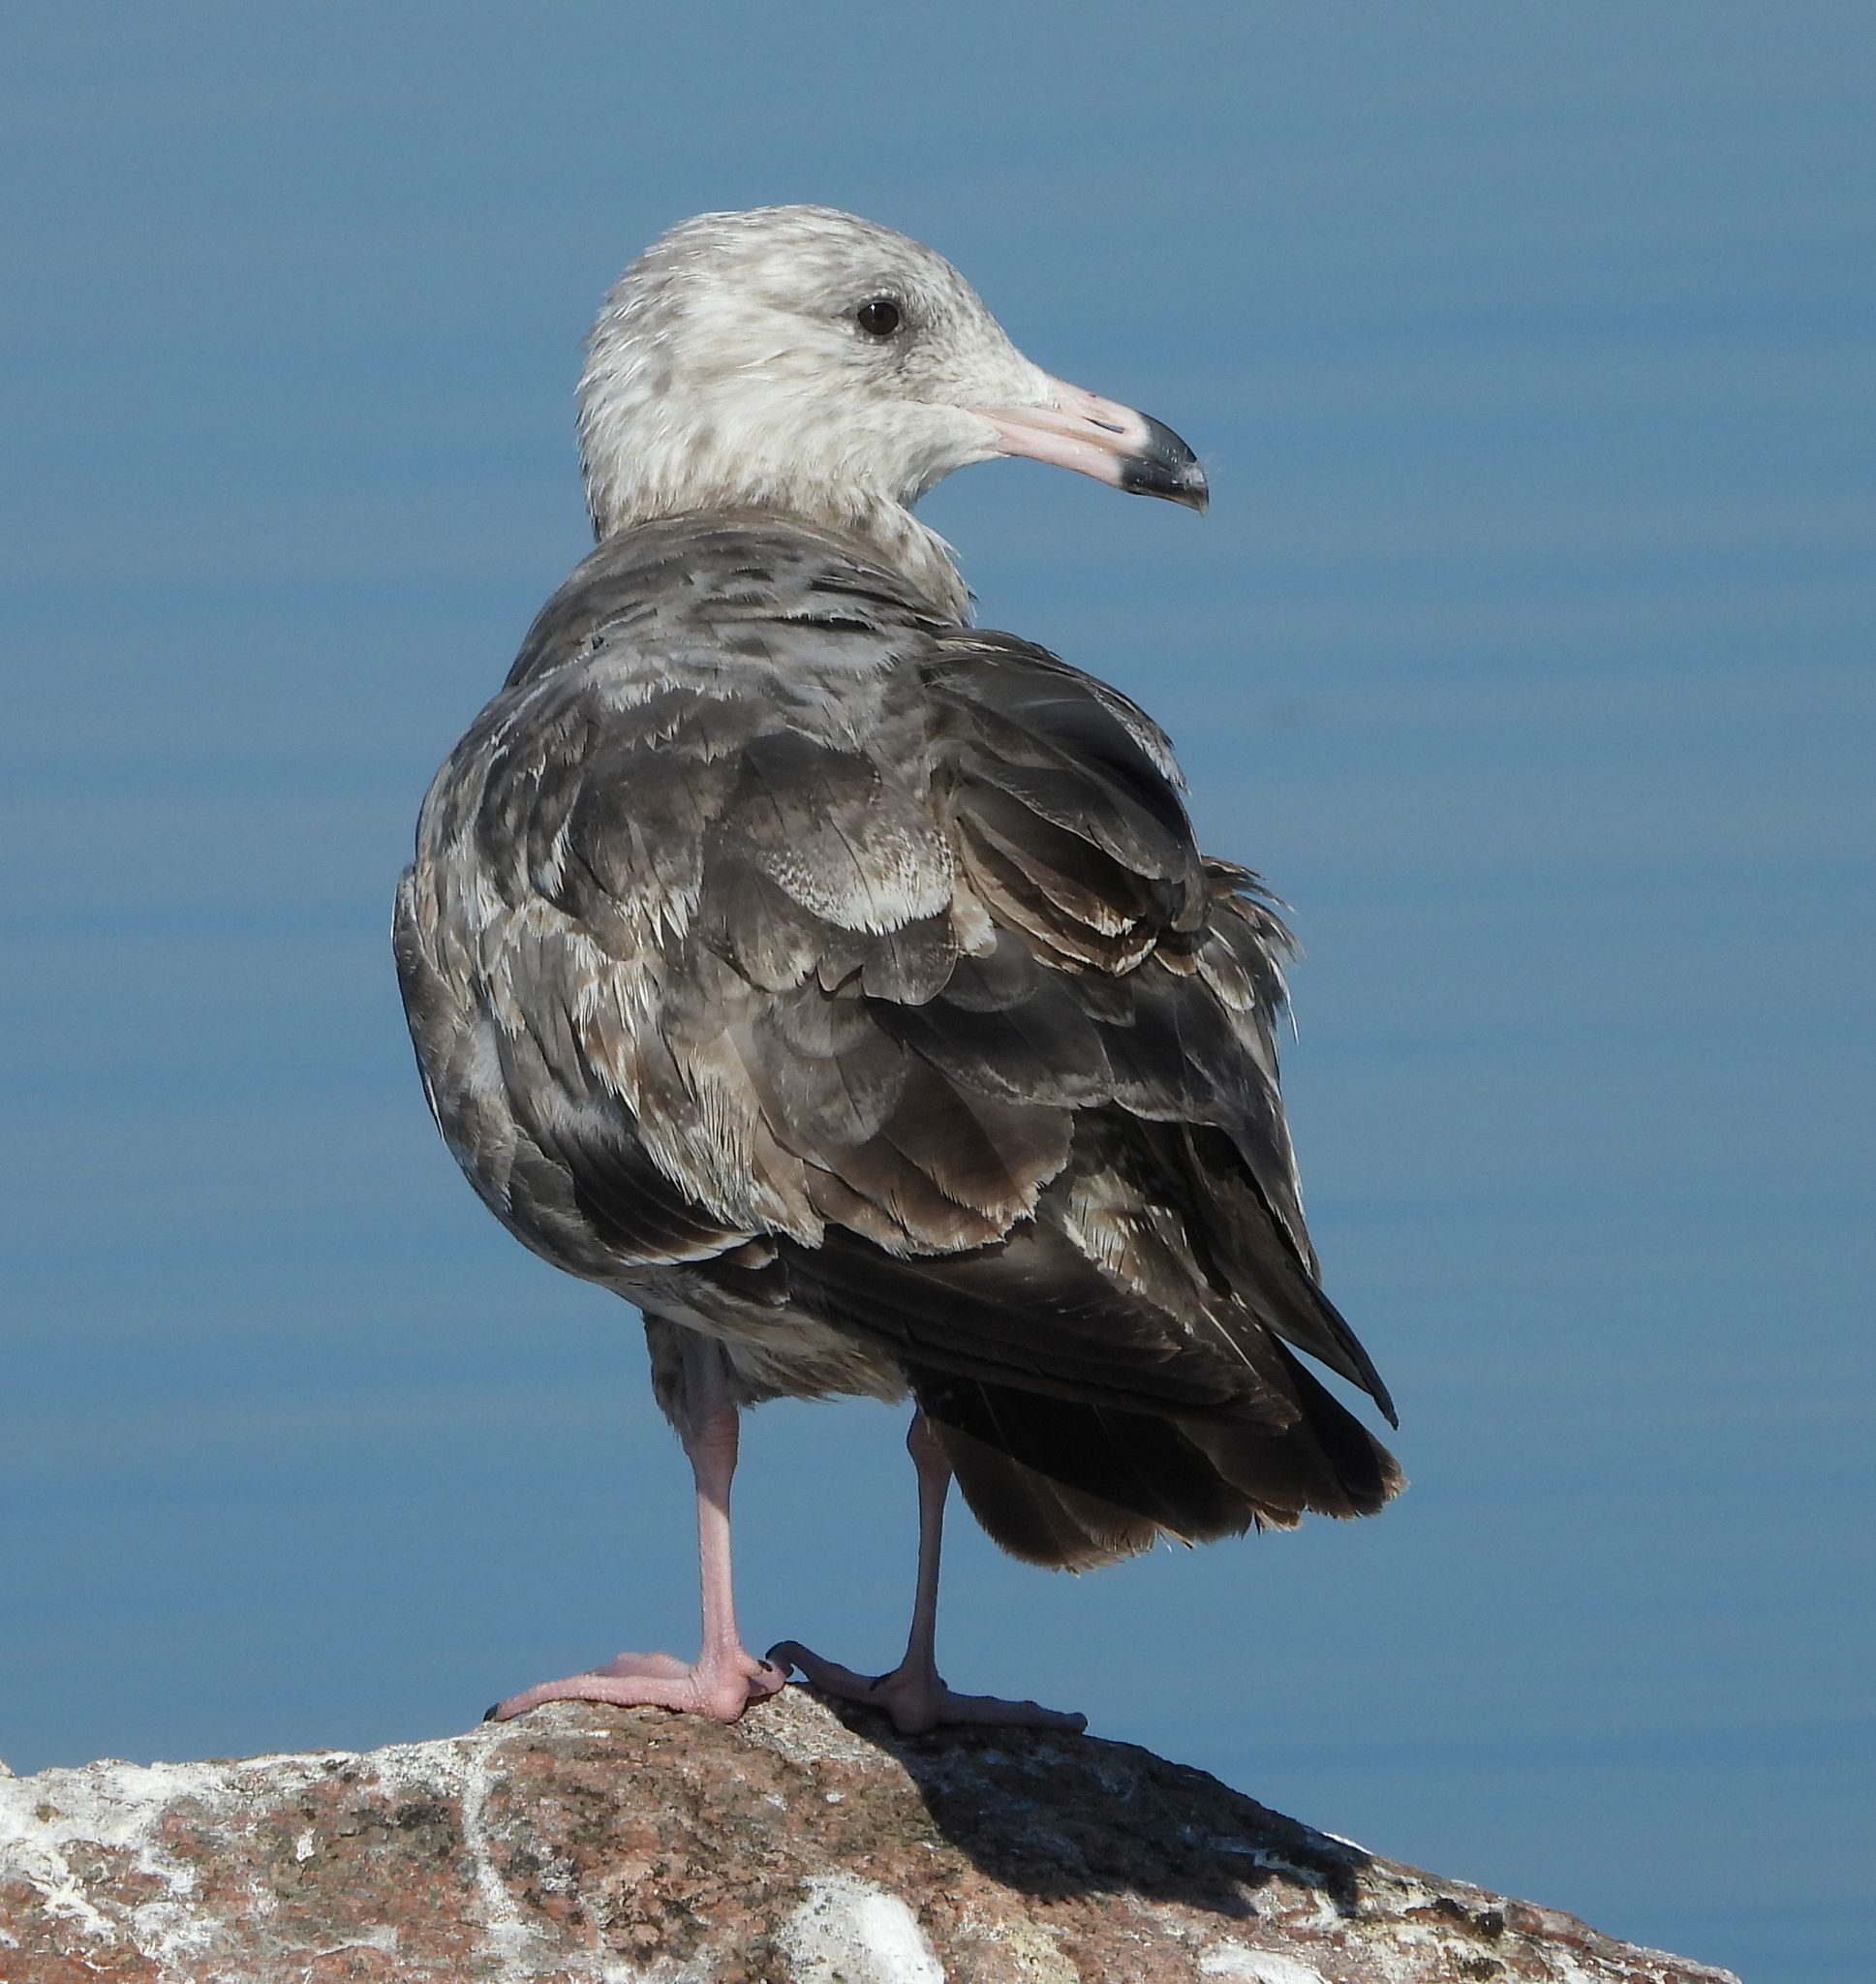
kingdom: Animalia
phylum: Chordata
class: Aves
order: Charadriiformes
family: Laridae
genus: Larus
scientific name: Larus argentatus
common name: Herring gull
